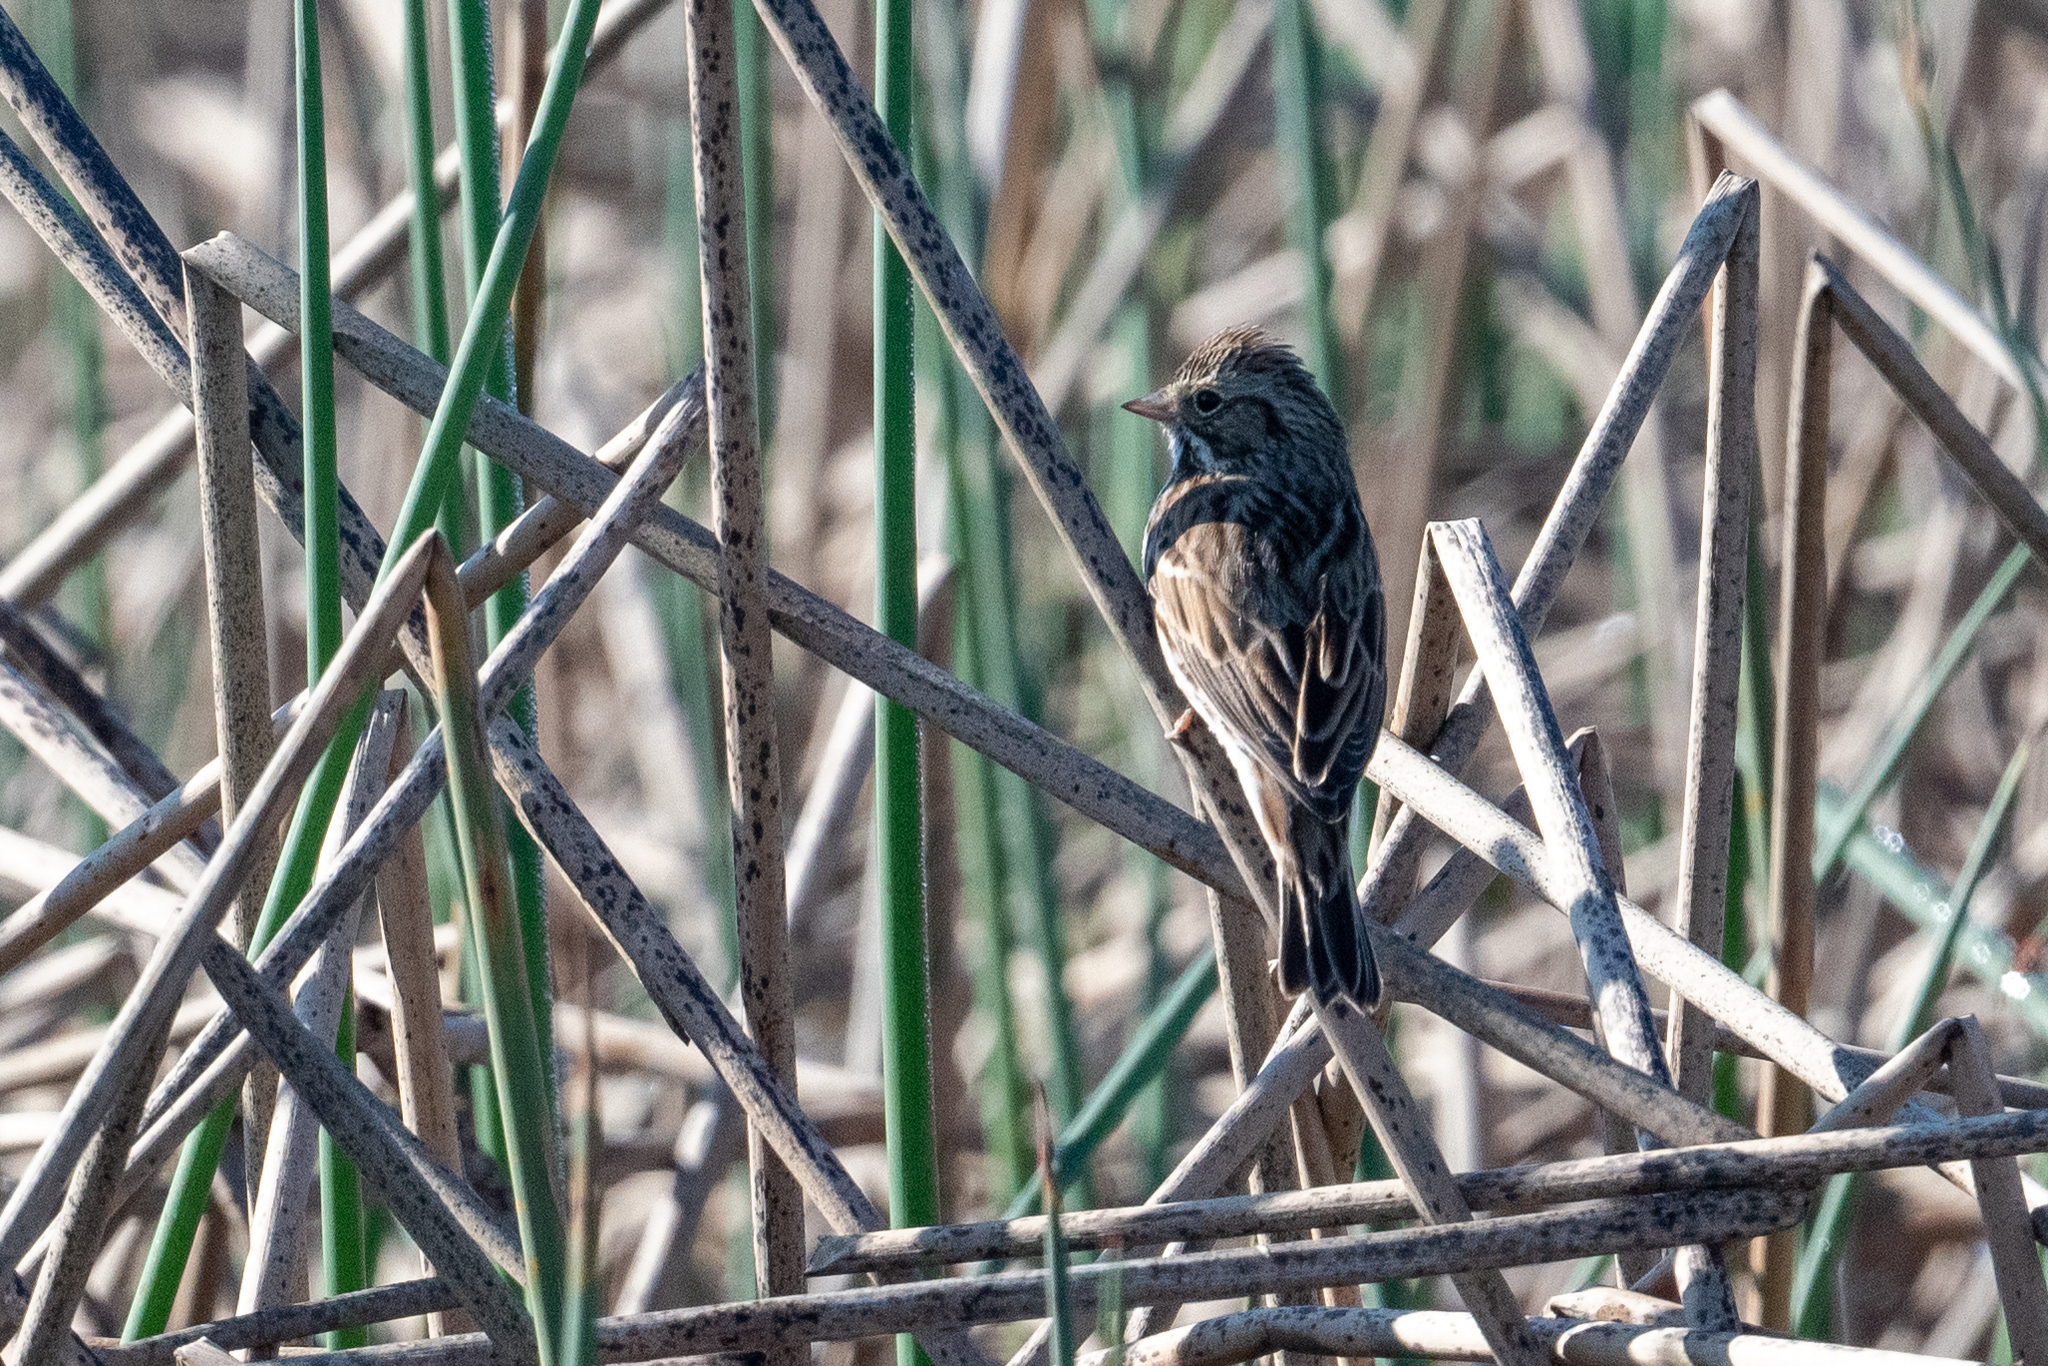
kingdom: Animalia
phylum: Chordata
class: Aves
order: Passeriformes
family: Passerellidae
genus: Passerculus
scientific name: Passerculus sandwichensis
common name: Savannah sparrow
